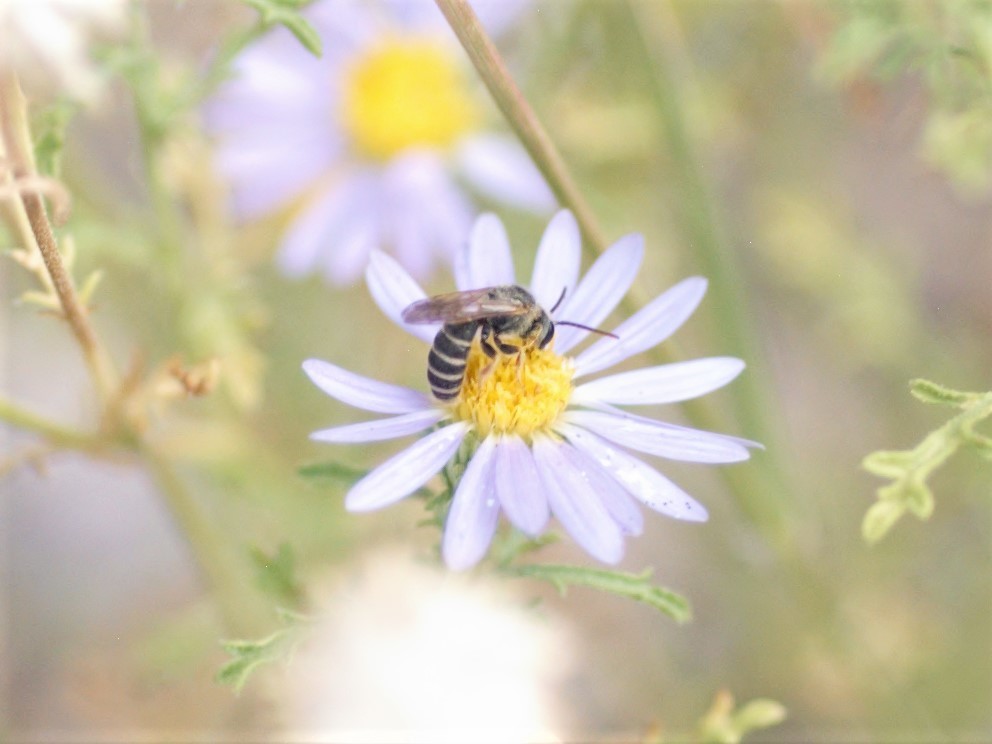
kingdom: Animalia
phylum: Arthropoda
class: Insecta
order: Hymenoptera
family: Halictidae
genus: Halictus
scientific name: Halictus ligatus
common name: Ligated furrow bee
